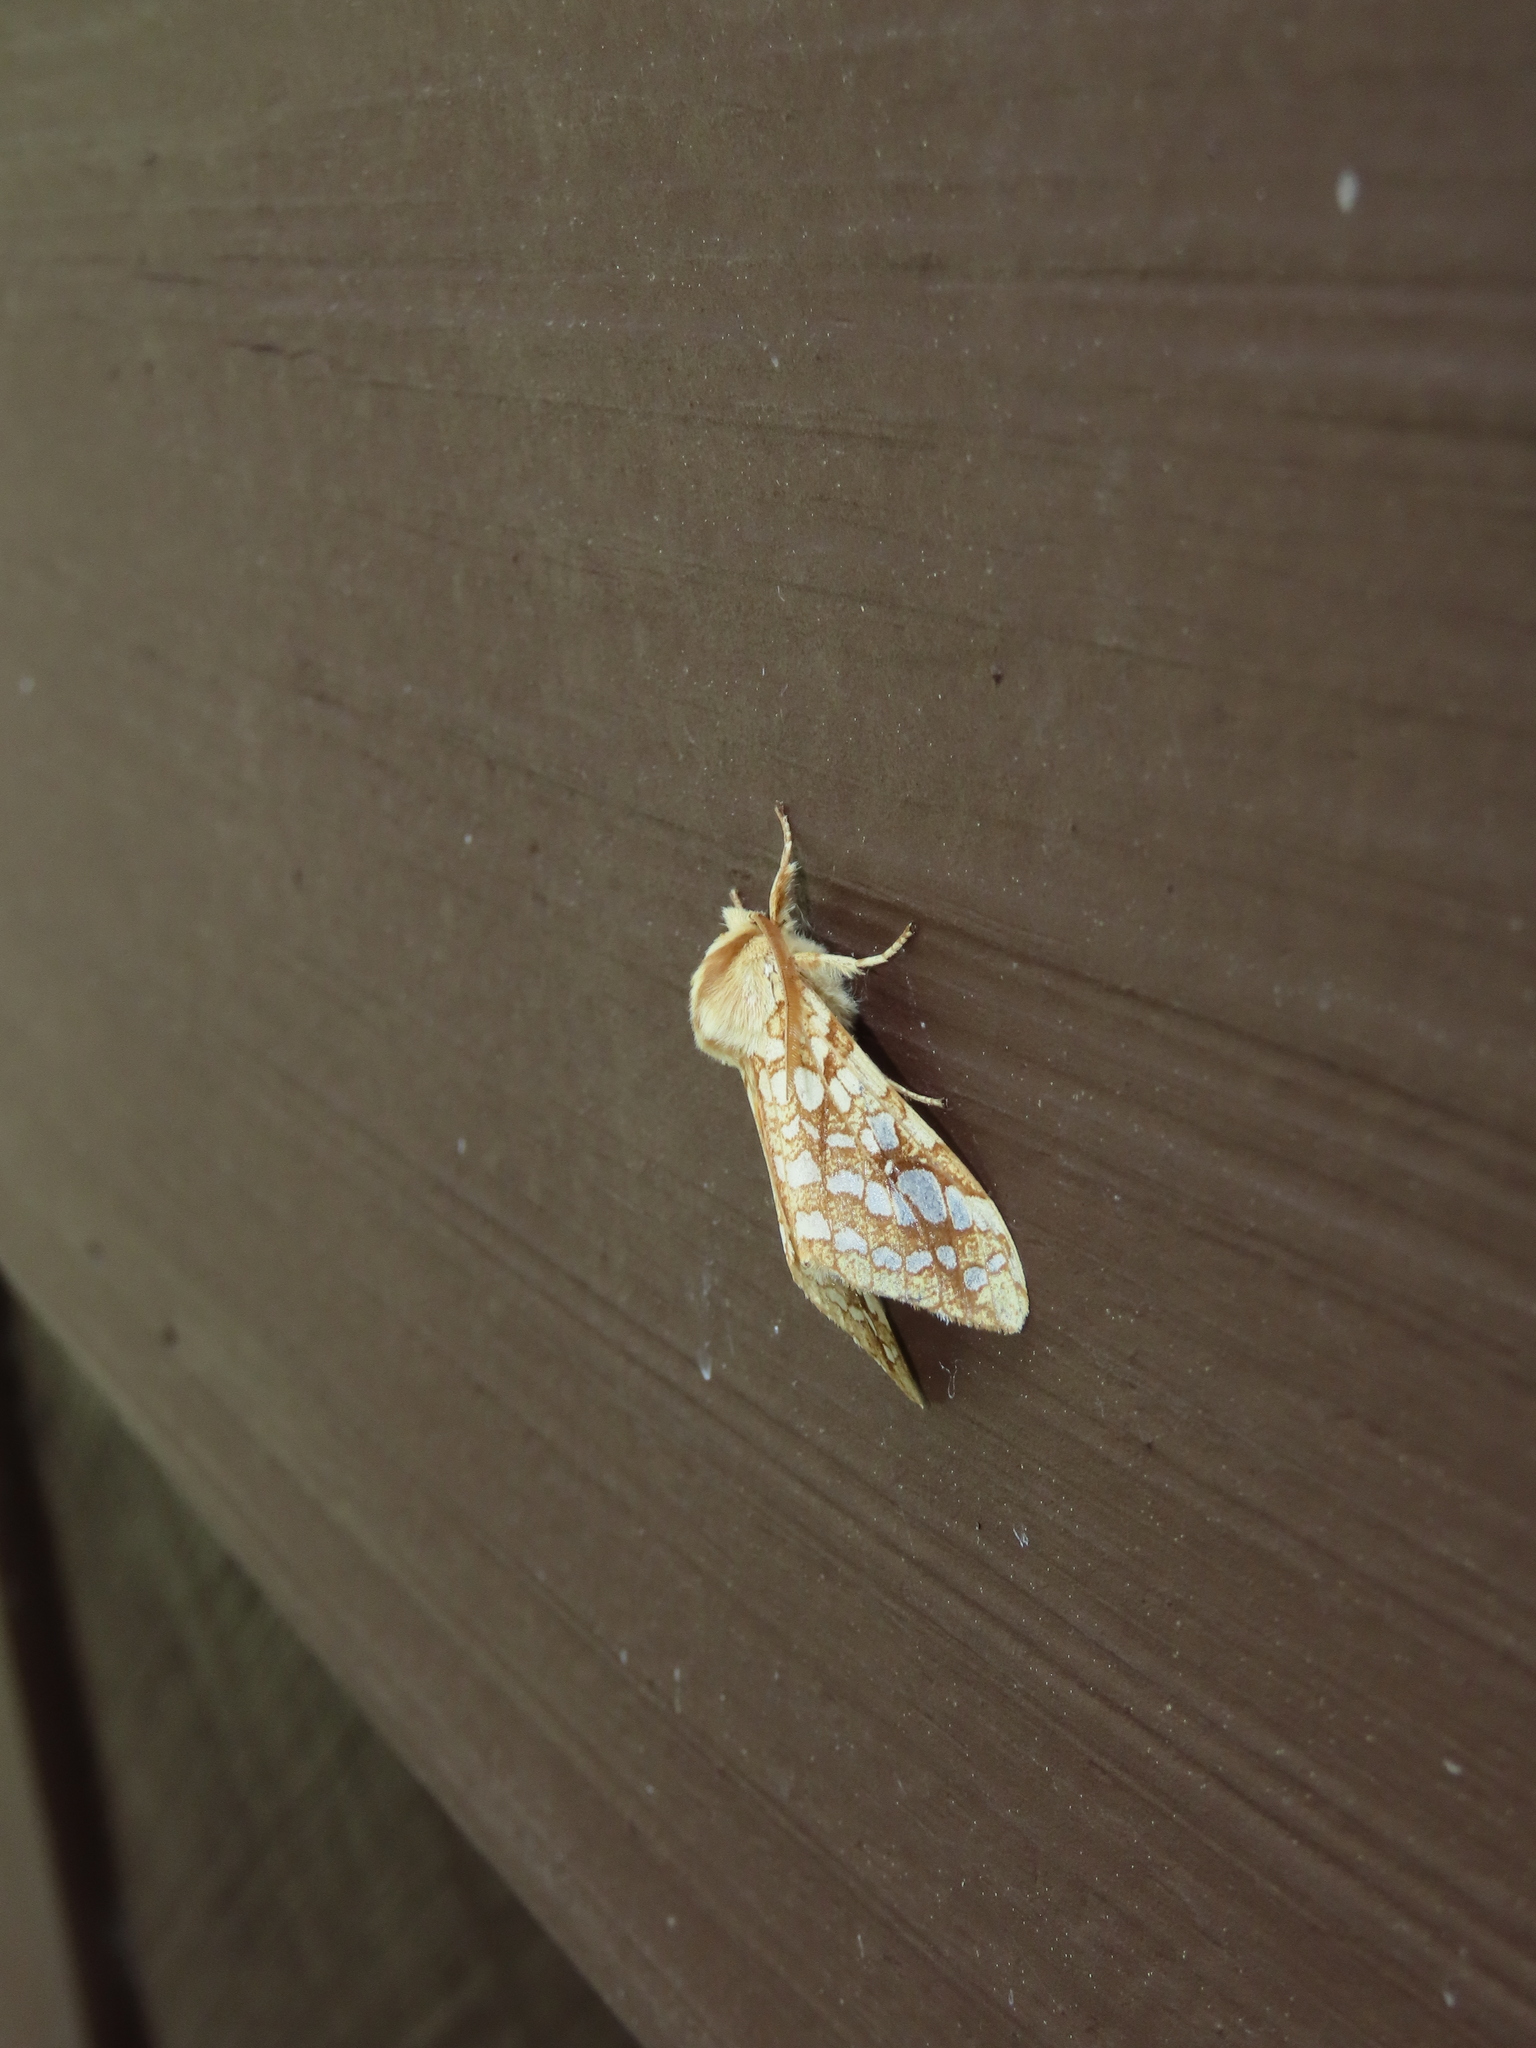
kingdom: Animalia
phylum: Arthropoda
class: Insecta
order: Lepidoptera
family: Erebidae
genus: Lophocampa
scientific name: Lophocampa caryae
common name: Hickory tussock moth
